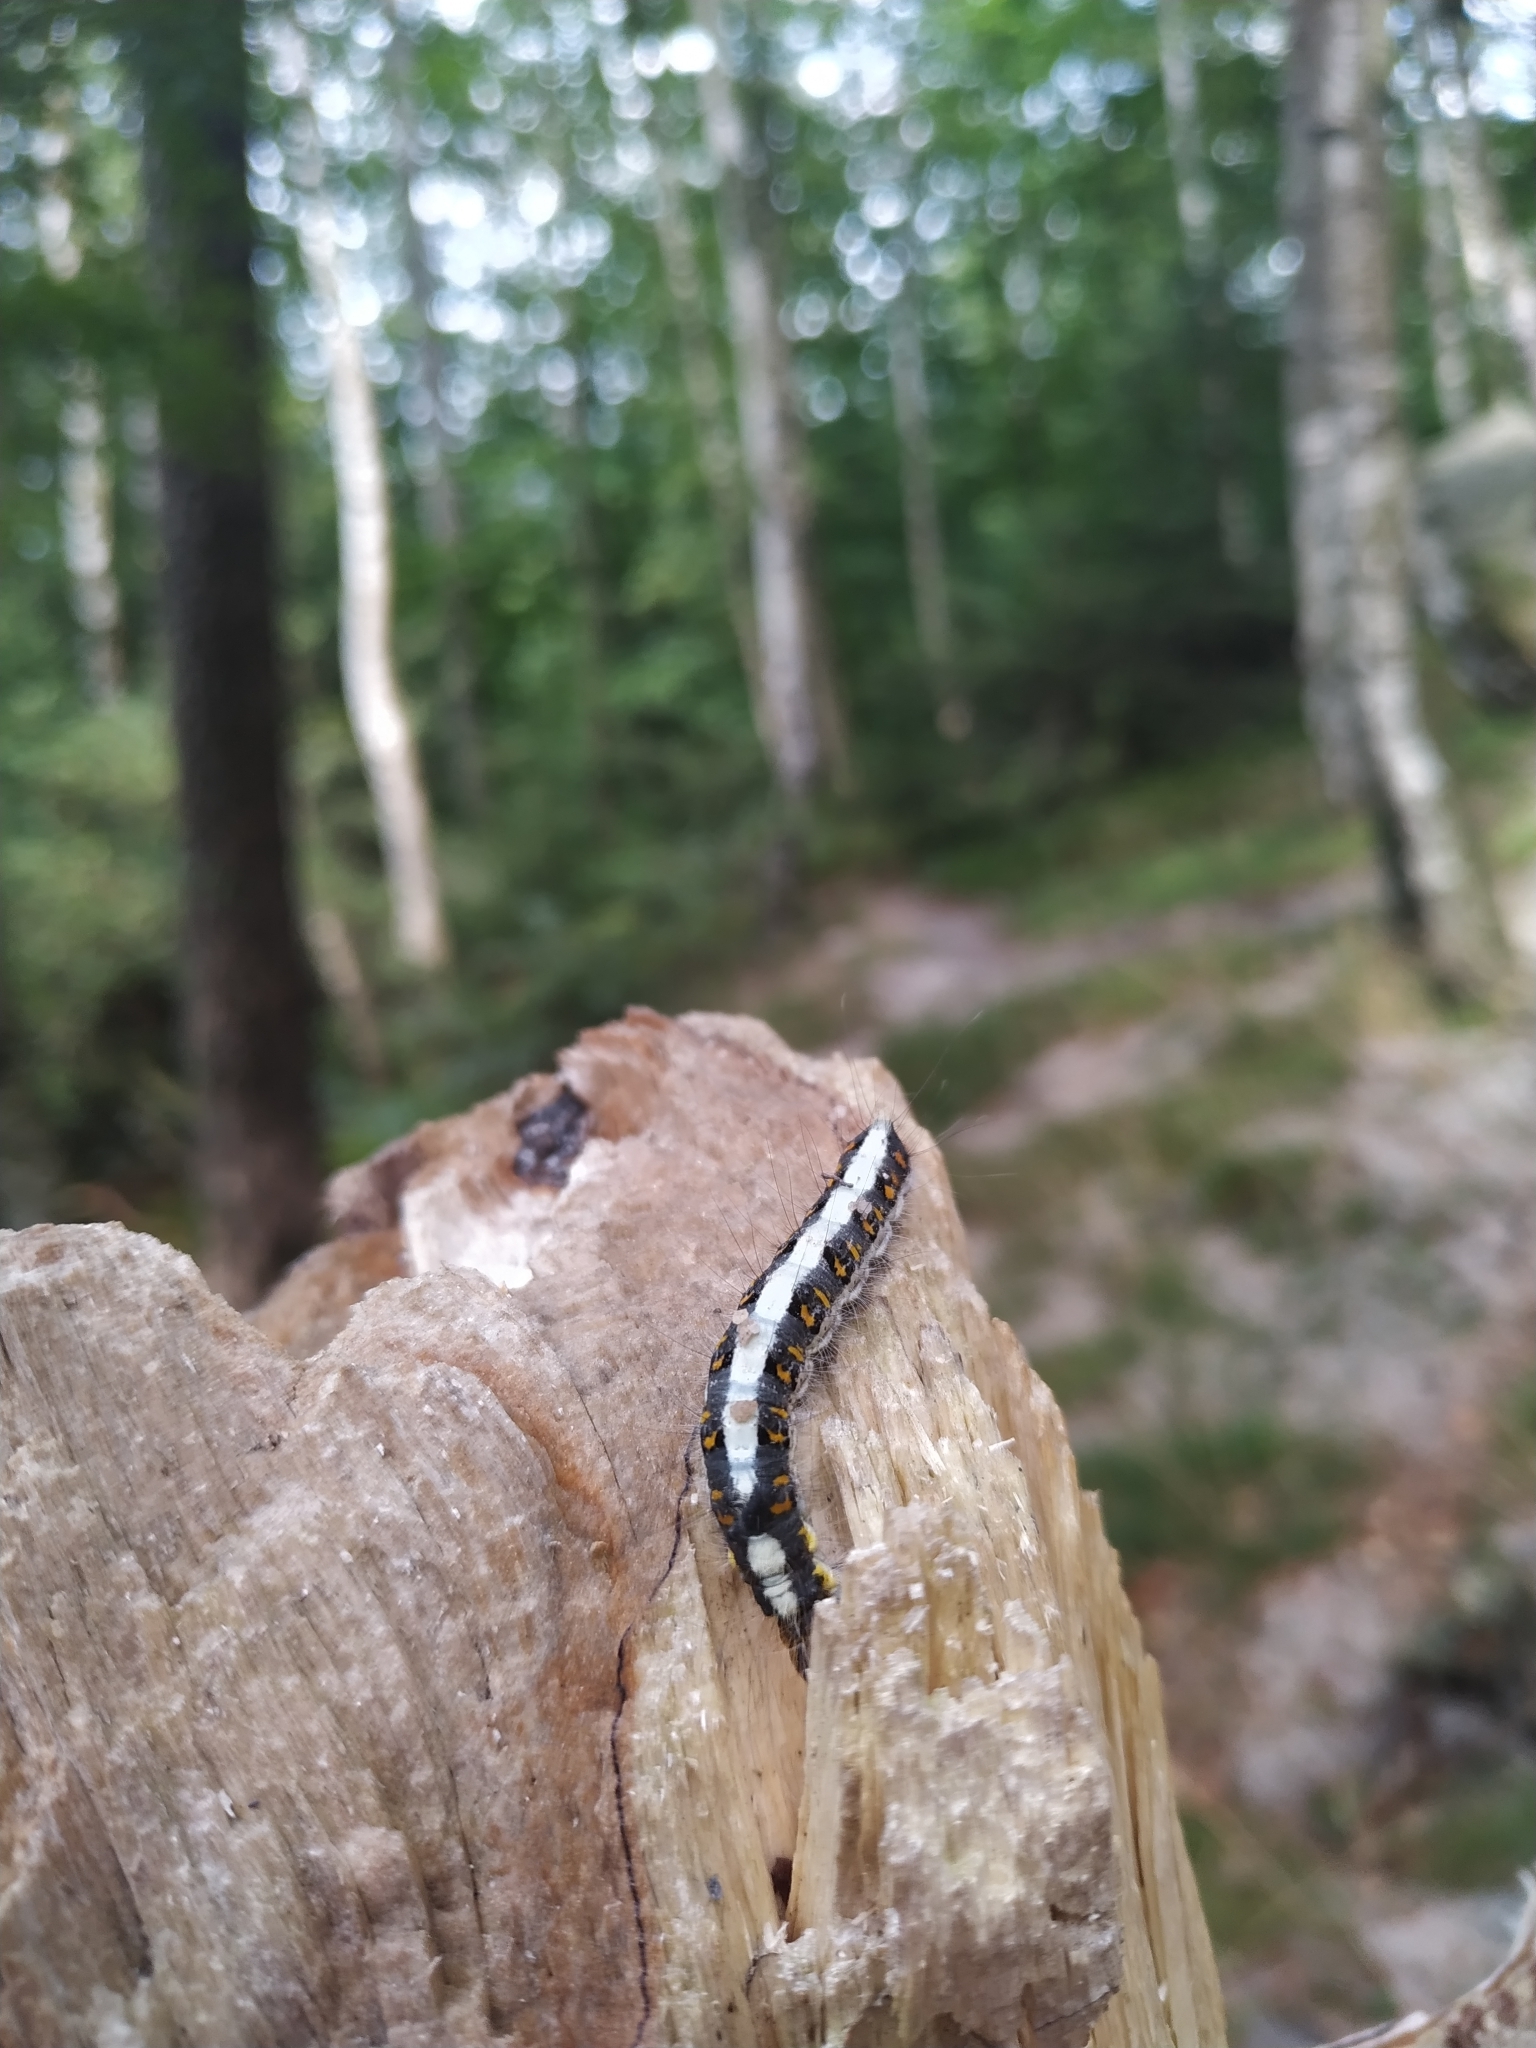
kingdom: Animalia
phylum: Arthropoda
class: Insecta
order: Lepidoptera
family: Noctuidae
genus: Acronicta
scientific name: Acronicta psi
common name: Grey dagger
